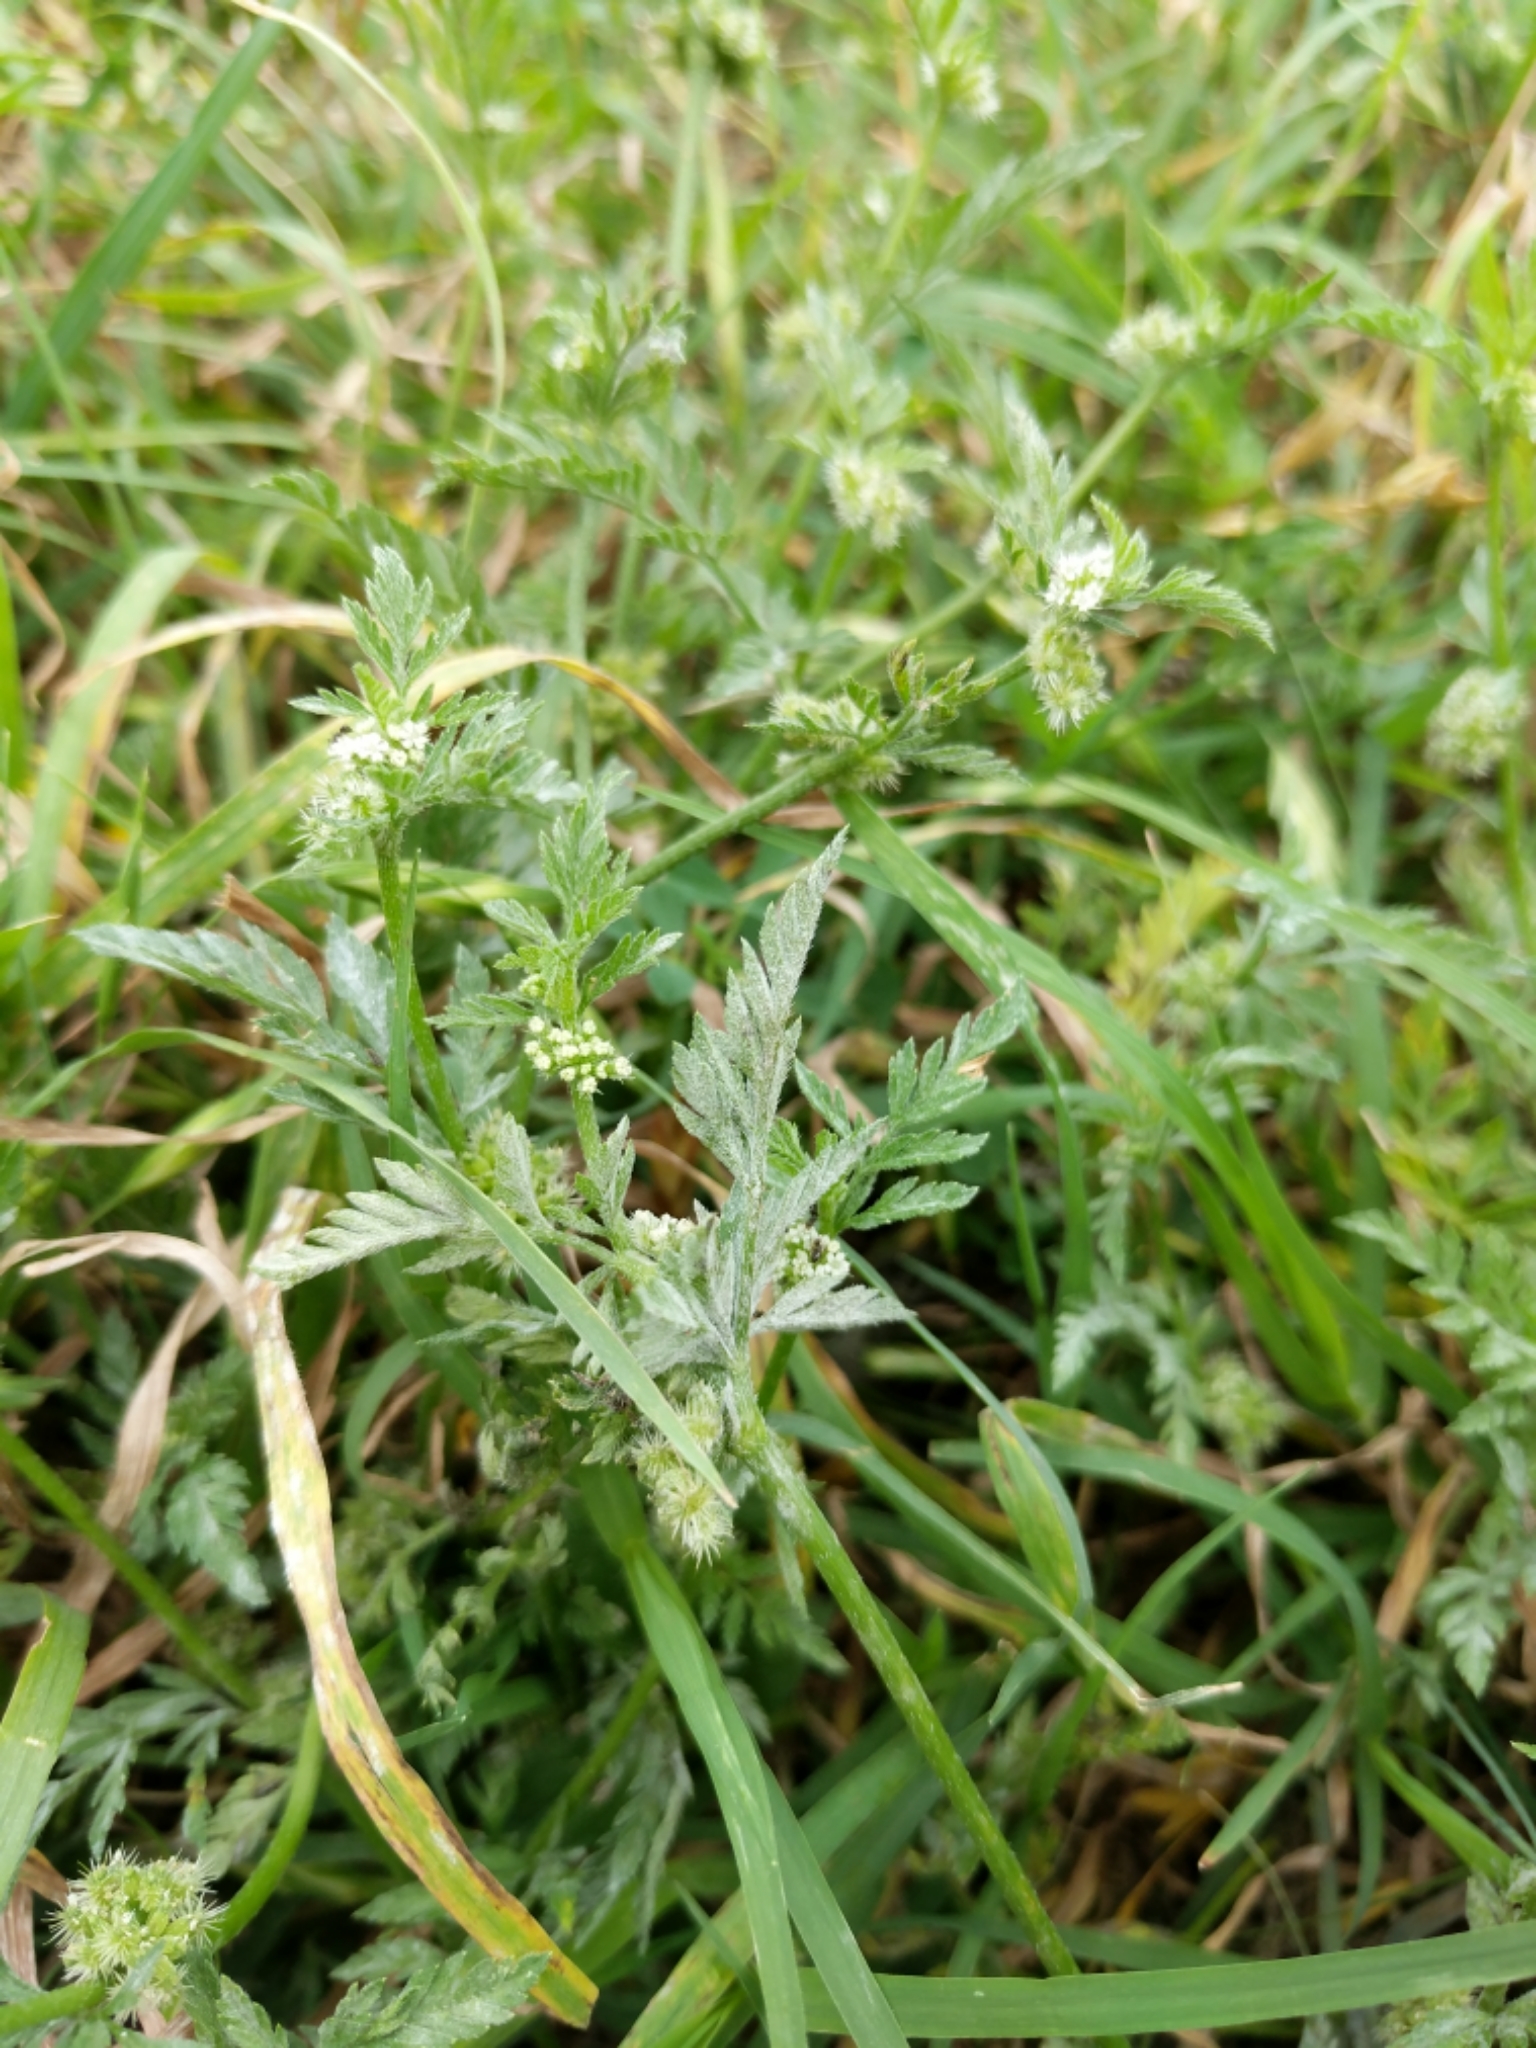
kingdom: Plantae
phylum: Tracheophyta
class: Magnoliopsida
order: Apiales
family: Apiaceae
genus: Torilis
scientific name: Torilis nodosa
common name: Knotted hedge-parsley
